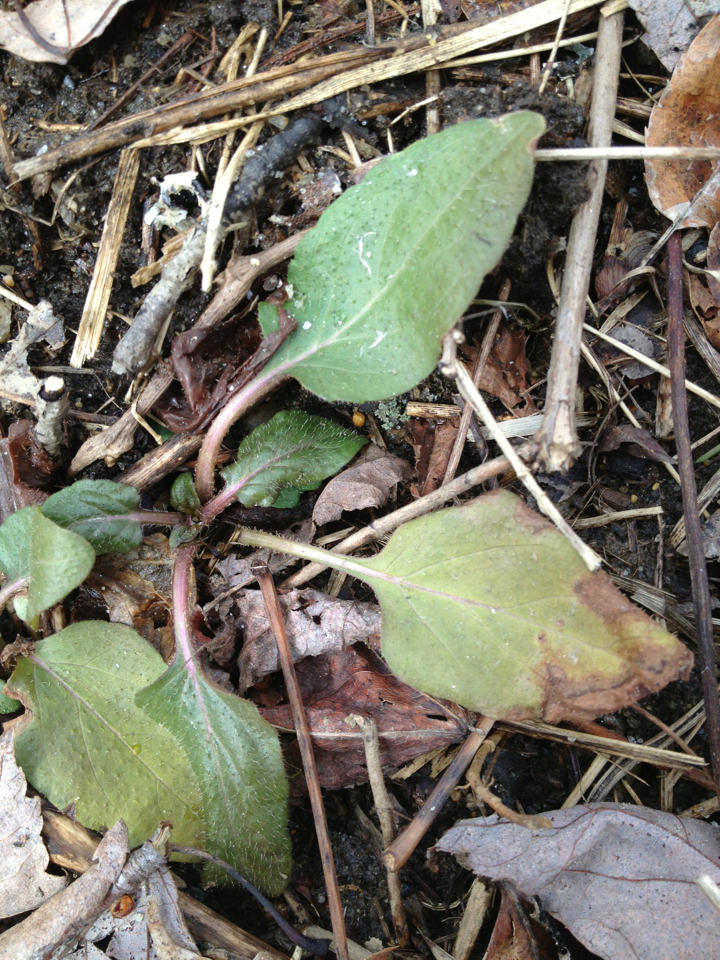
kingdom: Plantae
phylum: Tracheophyta
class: Magnoliopsida
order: Lamiales
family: Lamiaceae
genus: Prunella
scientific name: Prunella vulgaris
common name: Heal-all
